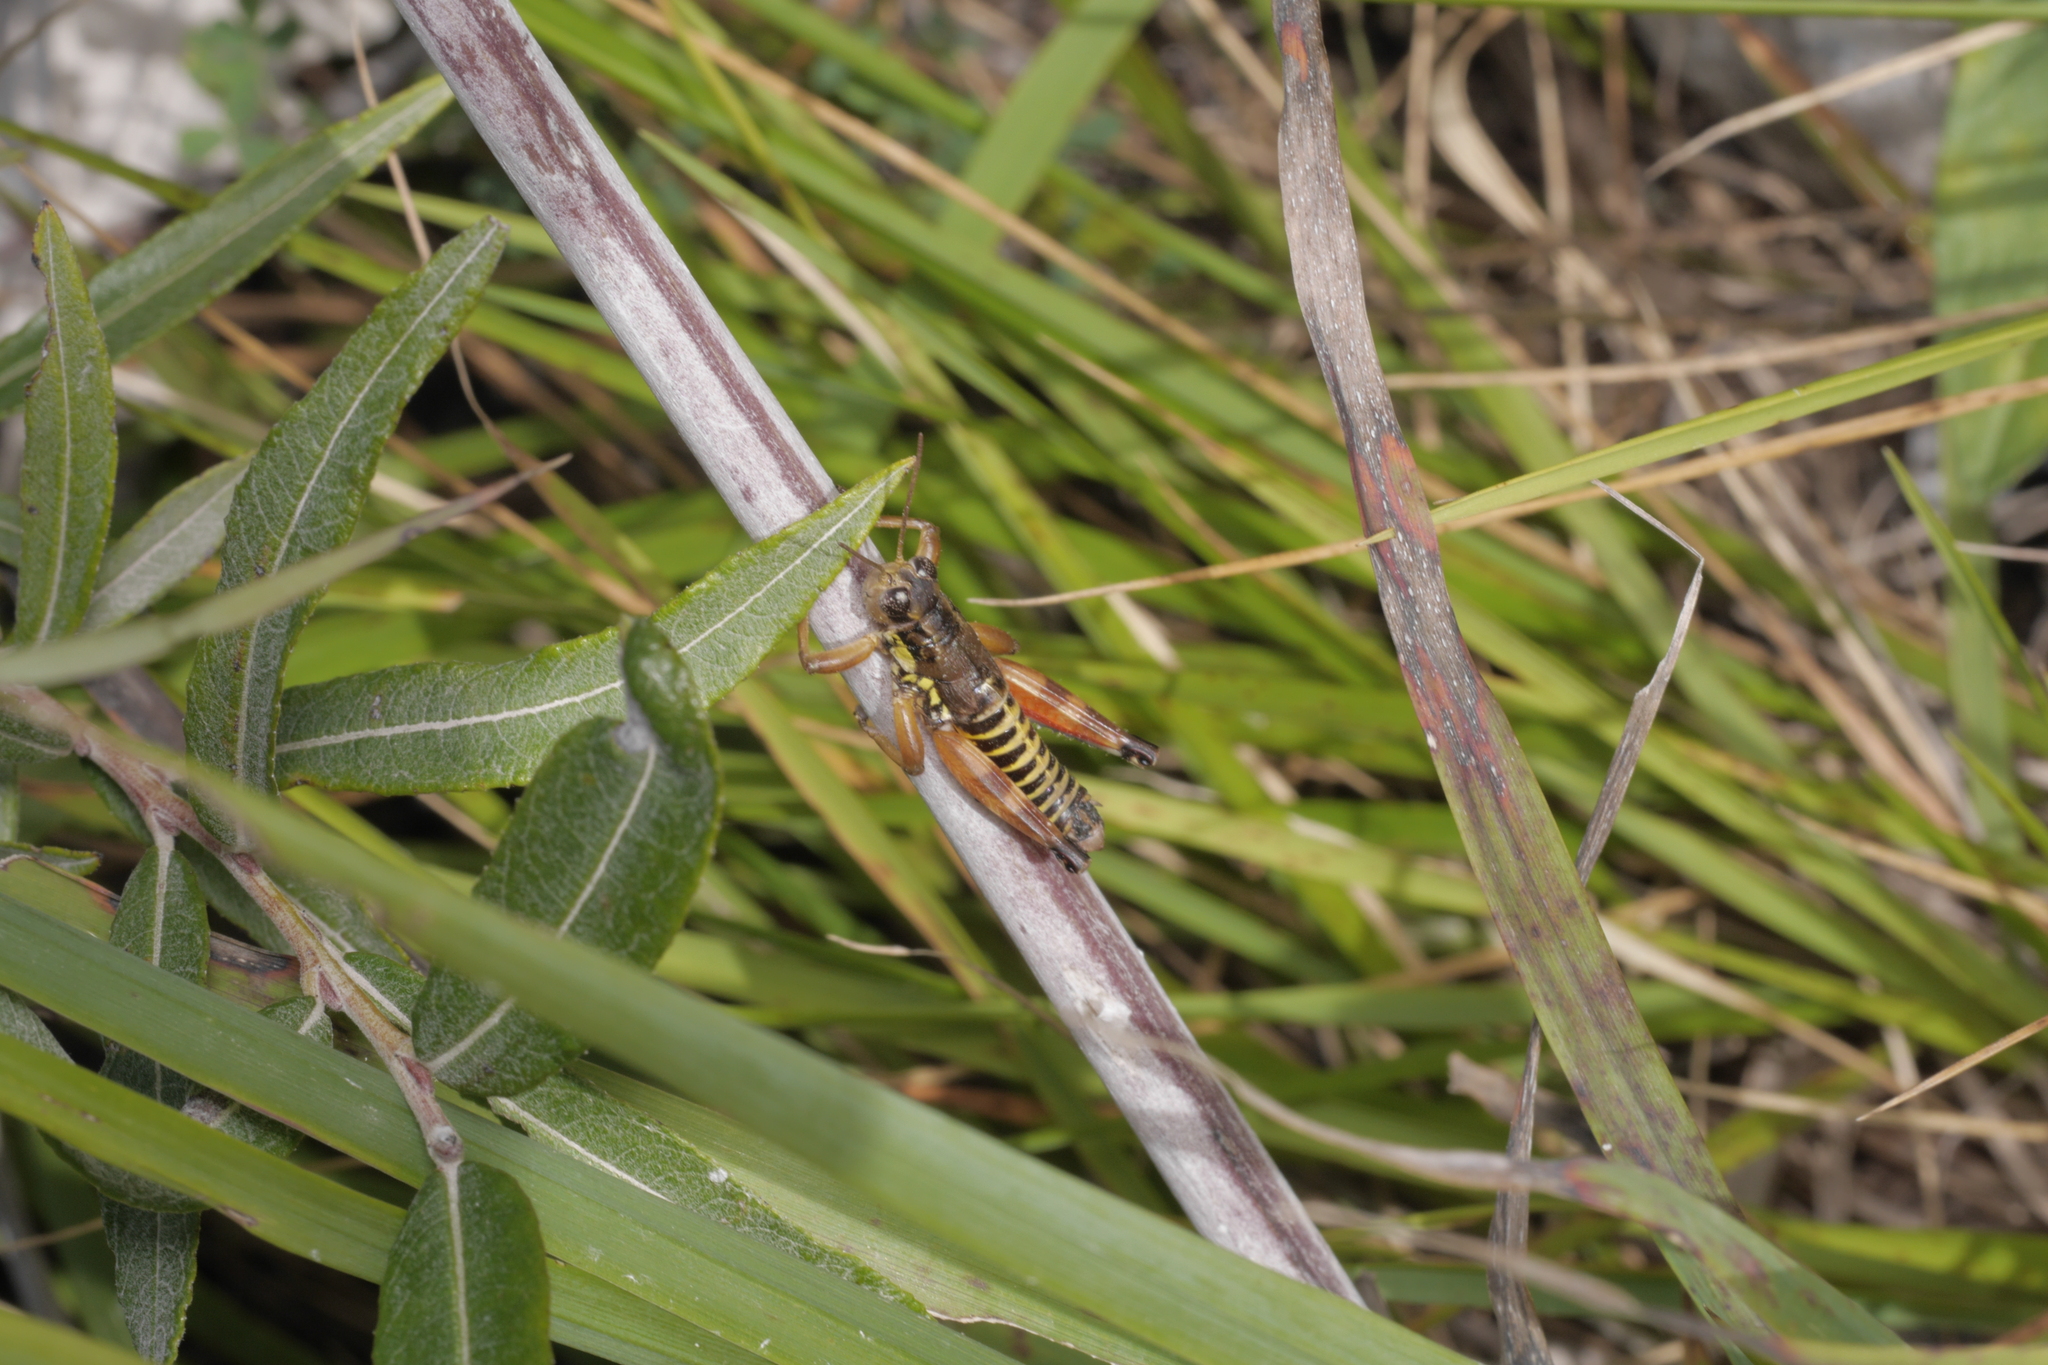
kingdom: Animalia
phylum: Arthropoda
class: Insecta
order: Orthoptera
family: Acrididae
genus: Podisma
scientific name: Podisma pedestris
